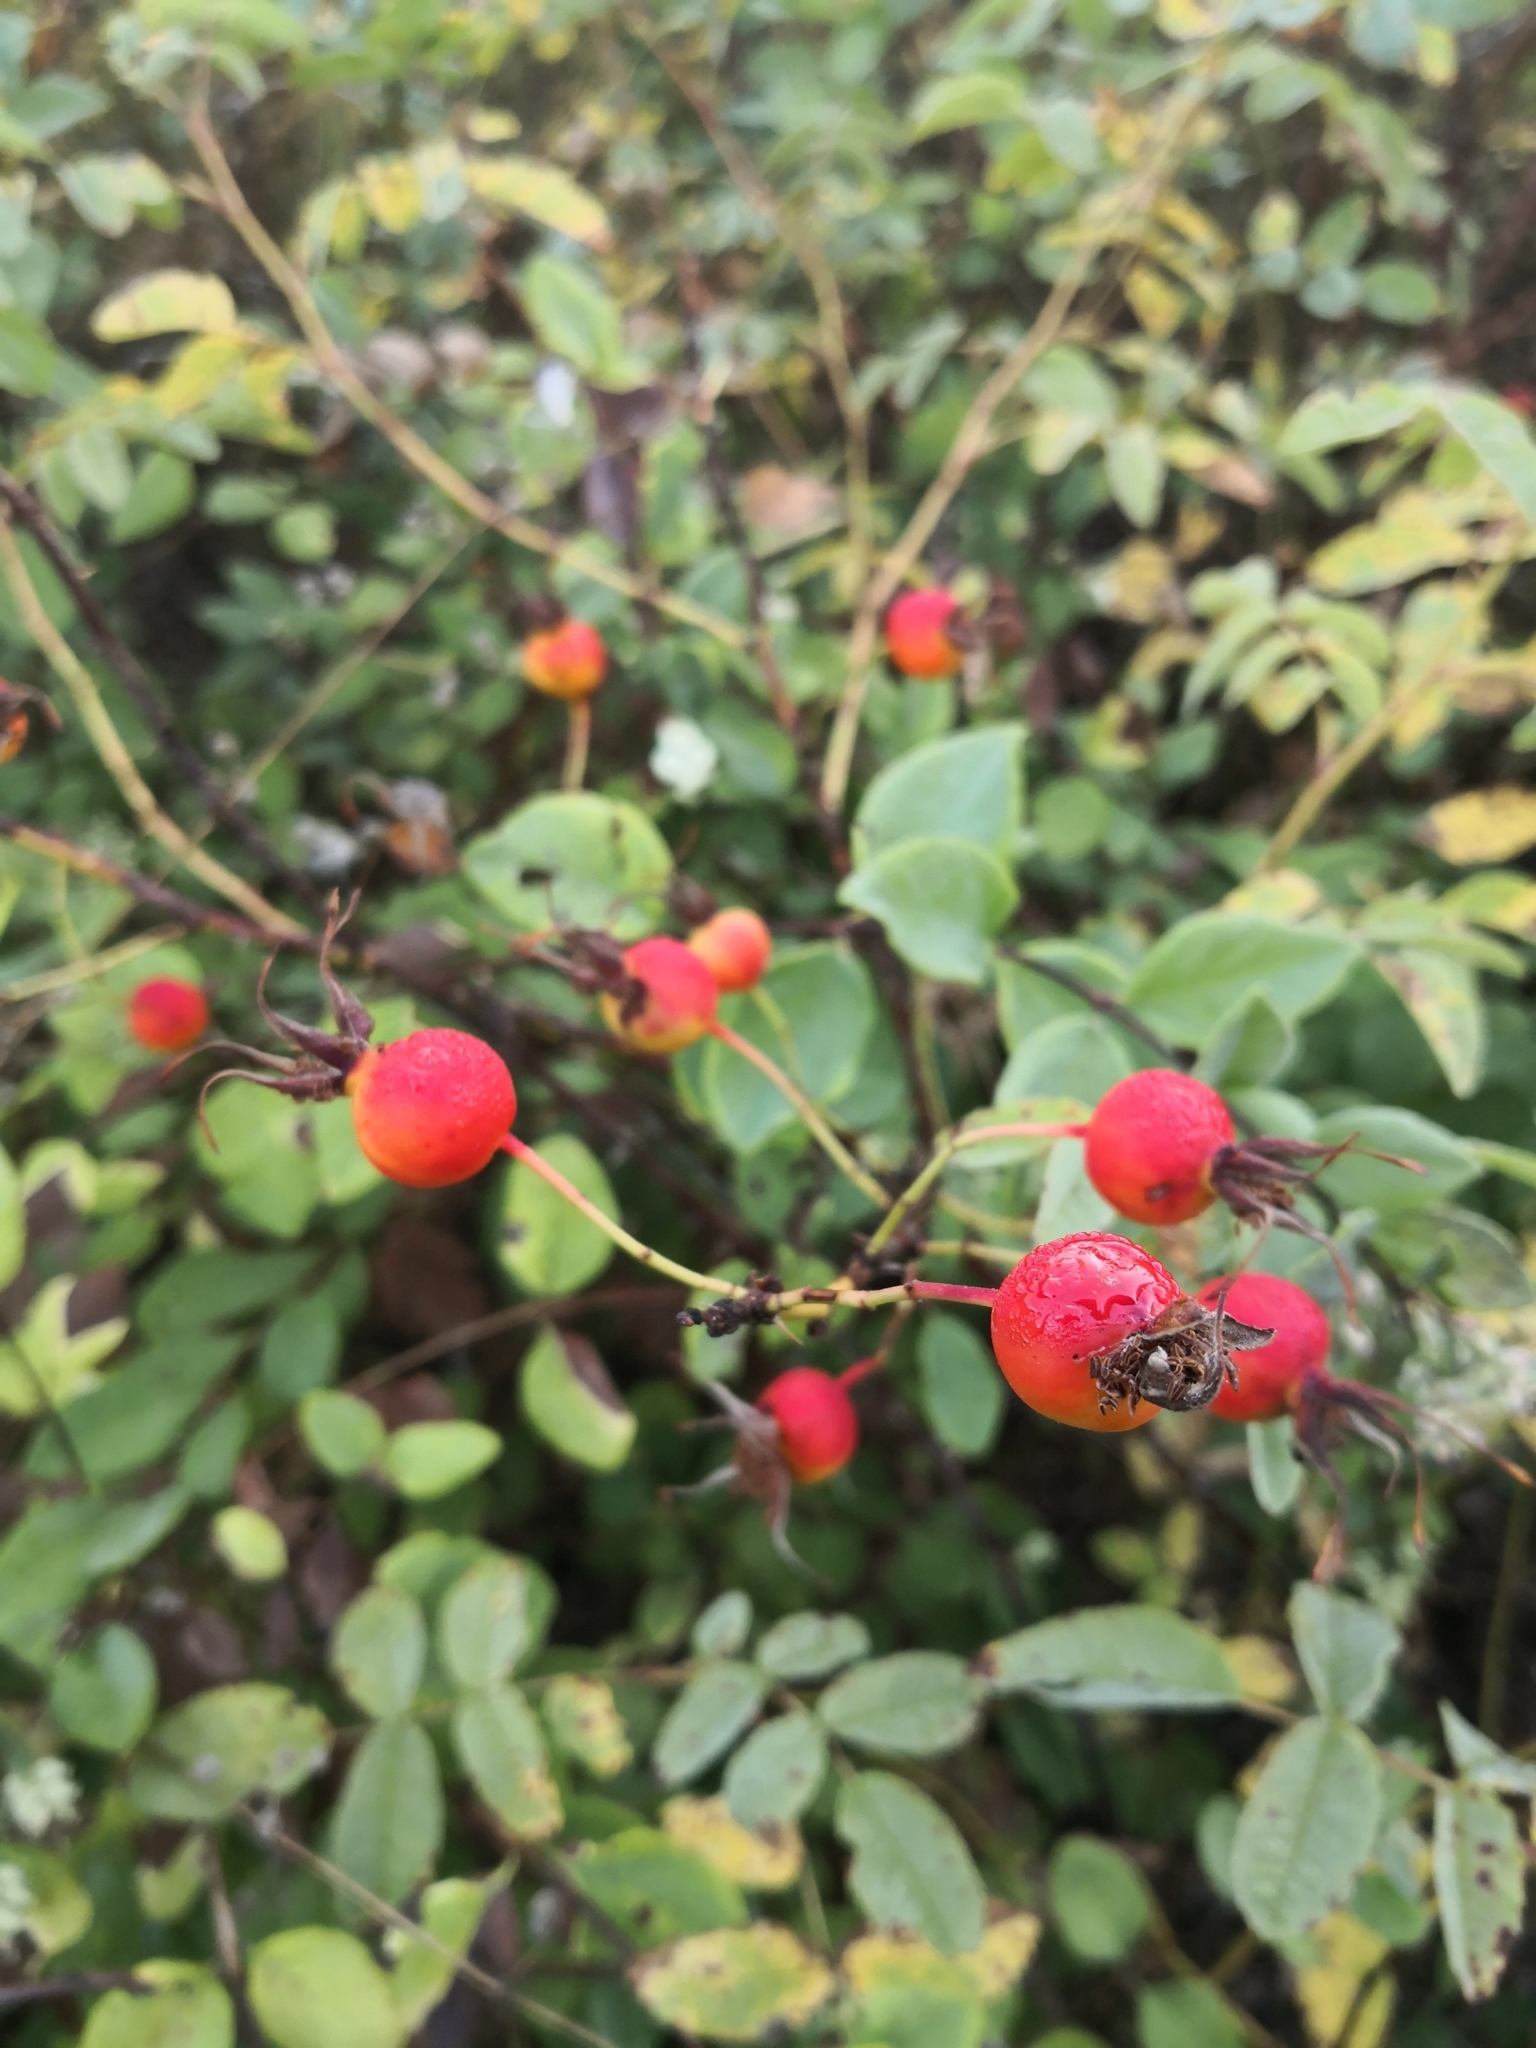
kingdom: Plantae
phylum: Tracheophyta
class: Magnoliopsida
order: Rosales
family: Rosaceae
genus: Rosa
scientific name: Rosa rubiginosa
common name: Sweet-briar
